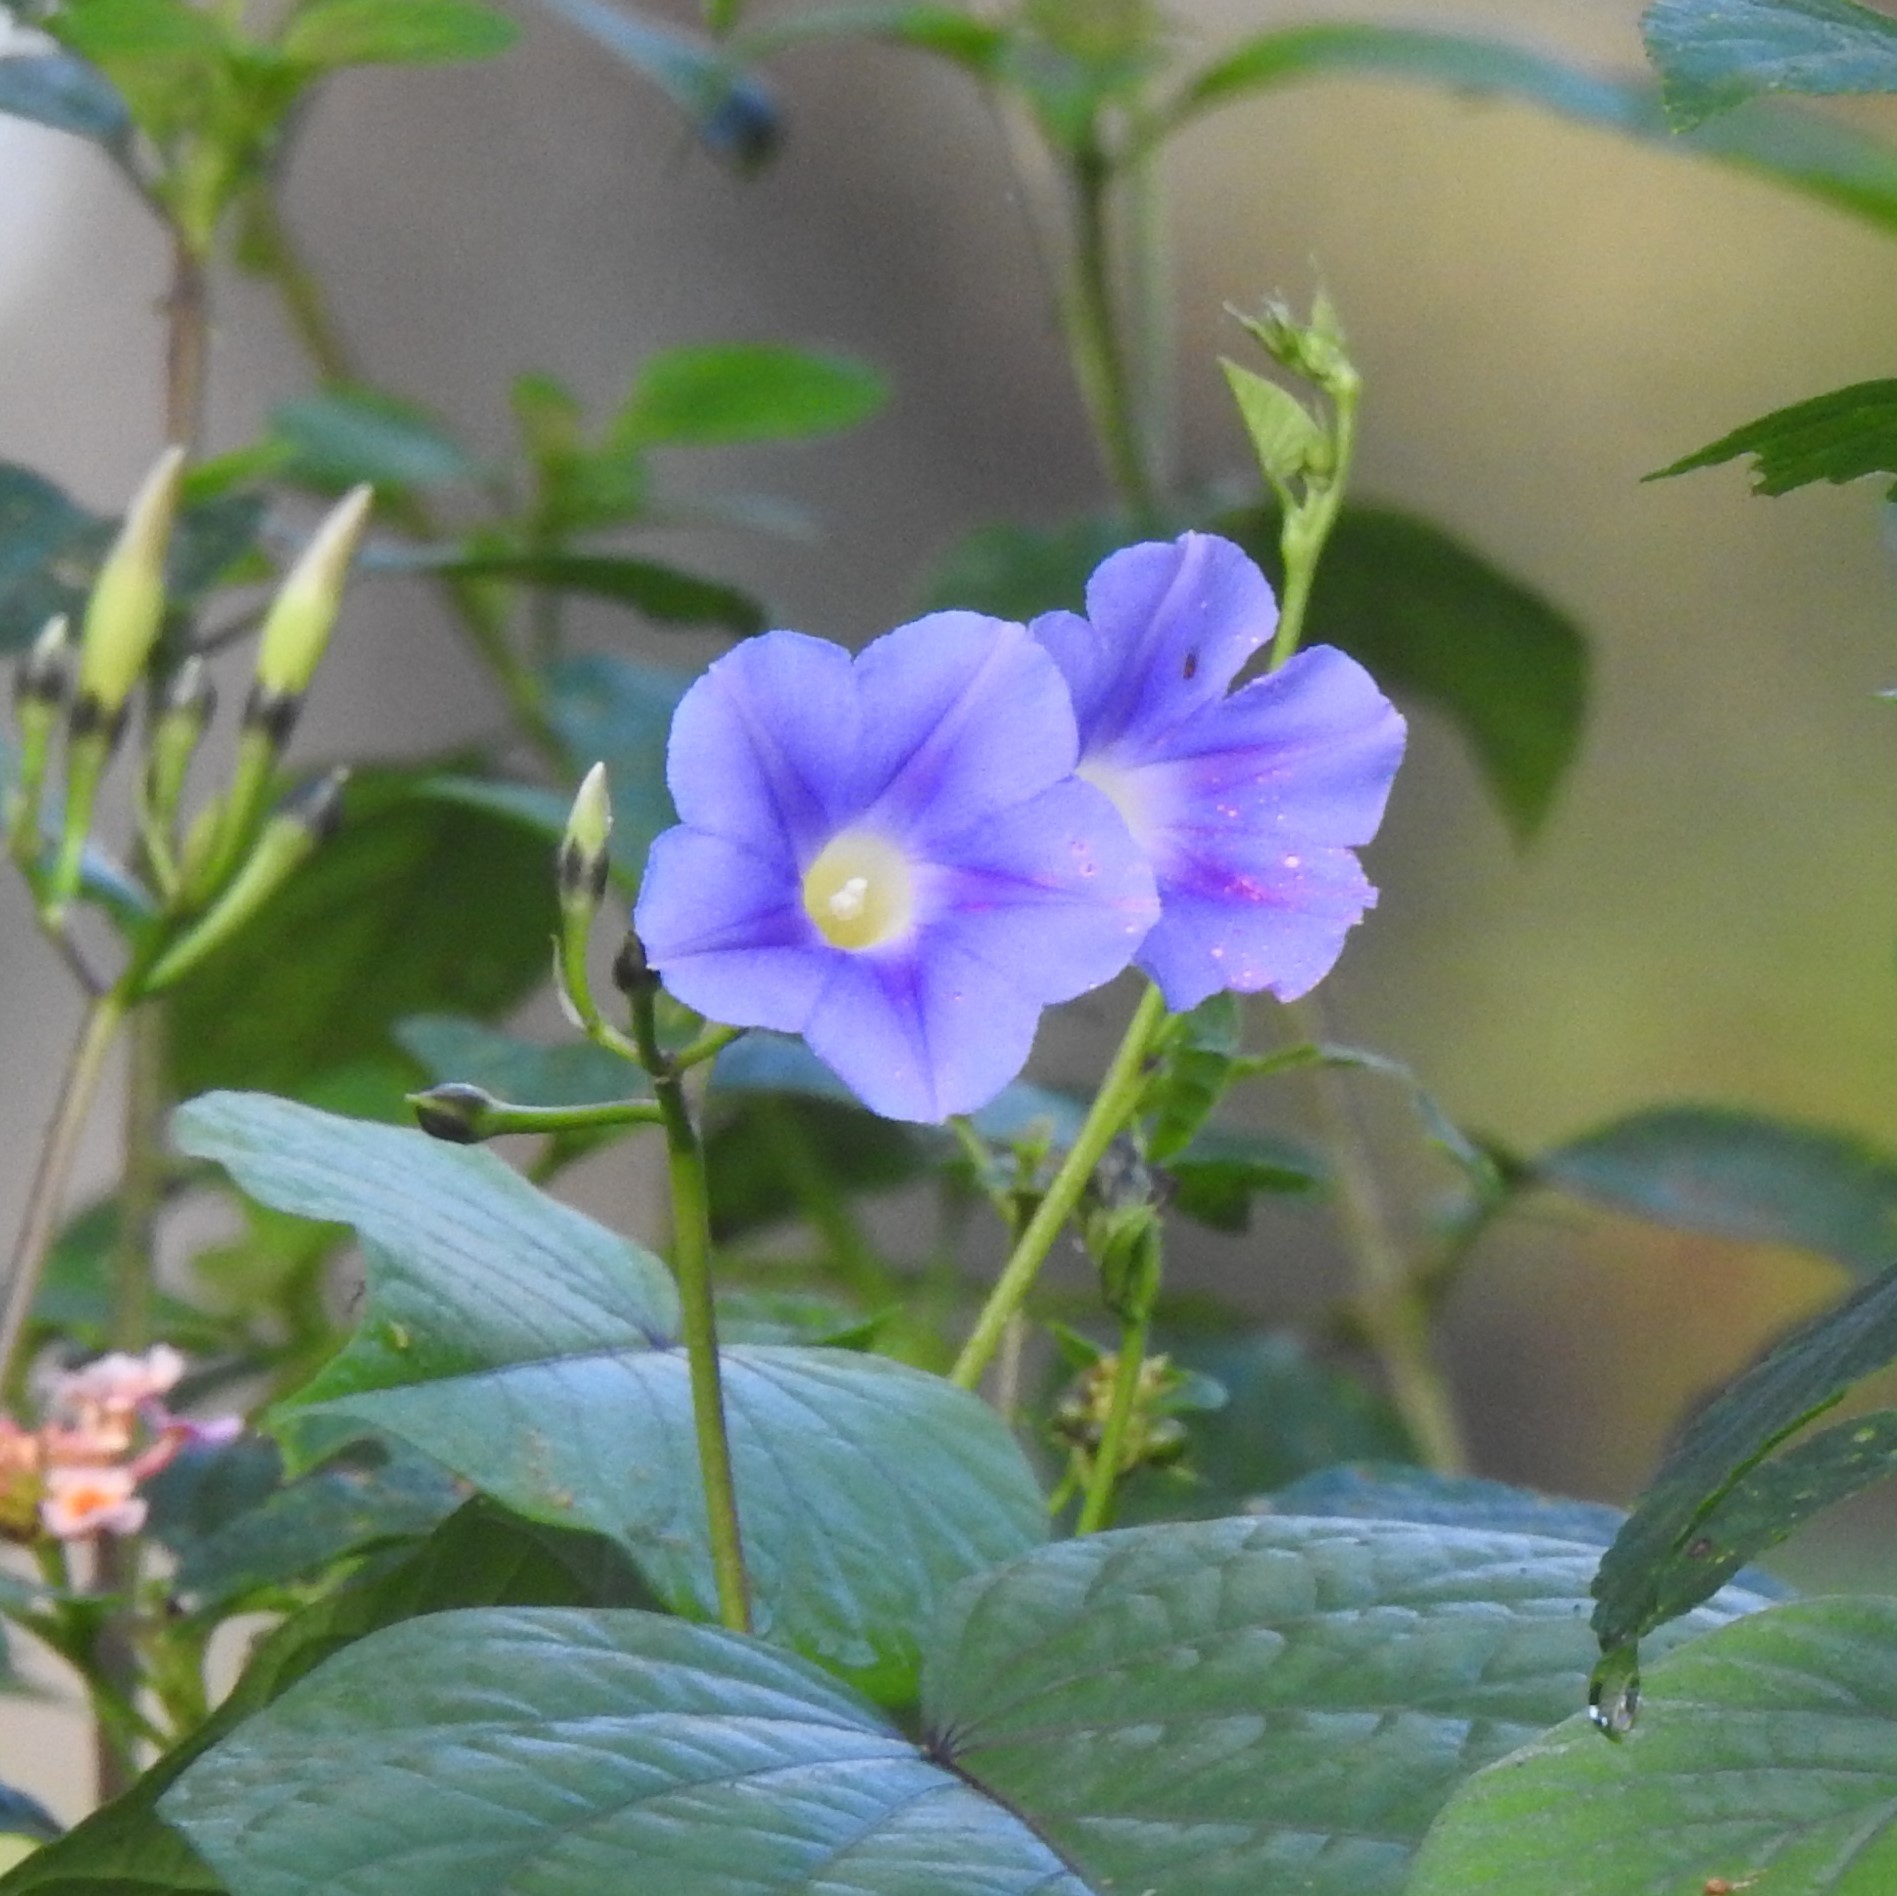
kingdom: Plantae
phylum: Tracheophyta
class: Magnoliopsida
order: Solanales
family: Convolvulaceae
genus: Ipomoea
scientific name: Ipomoea parasitica
